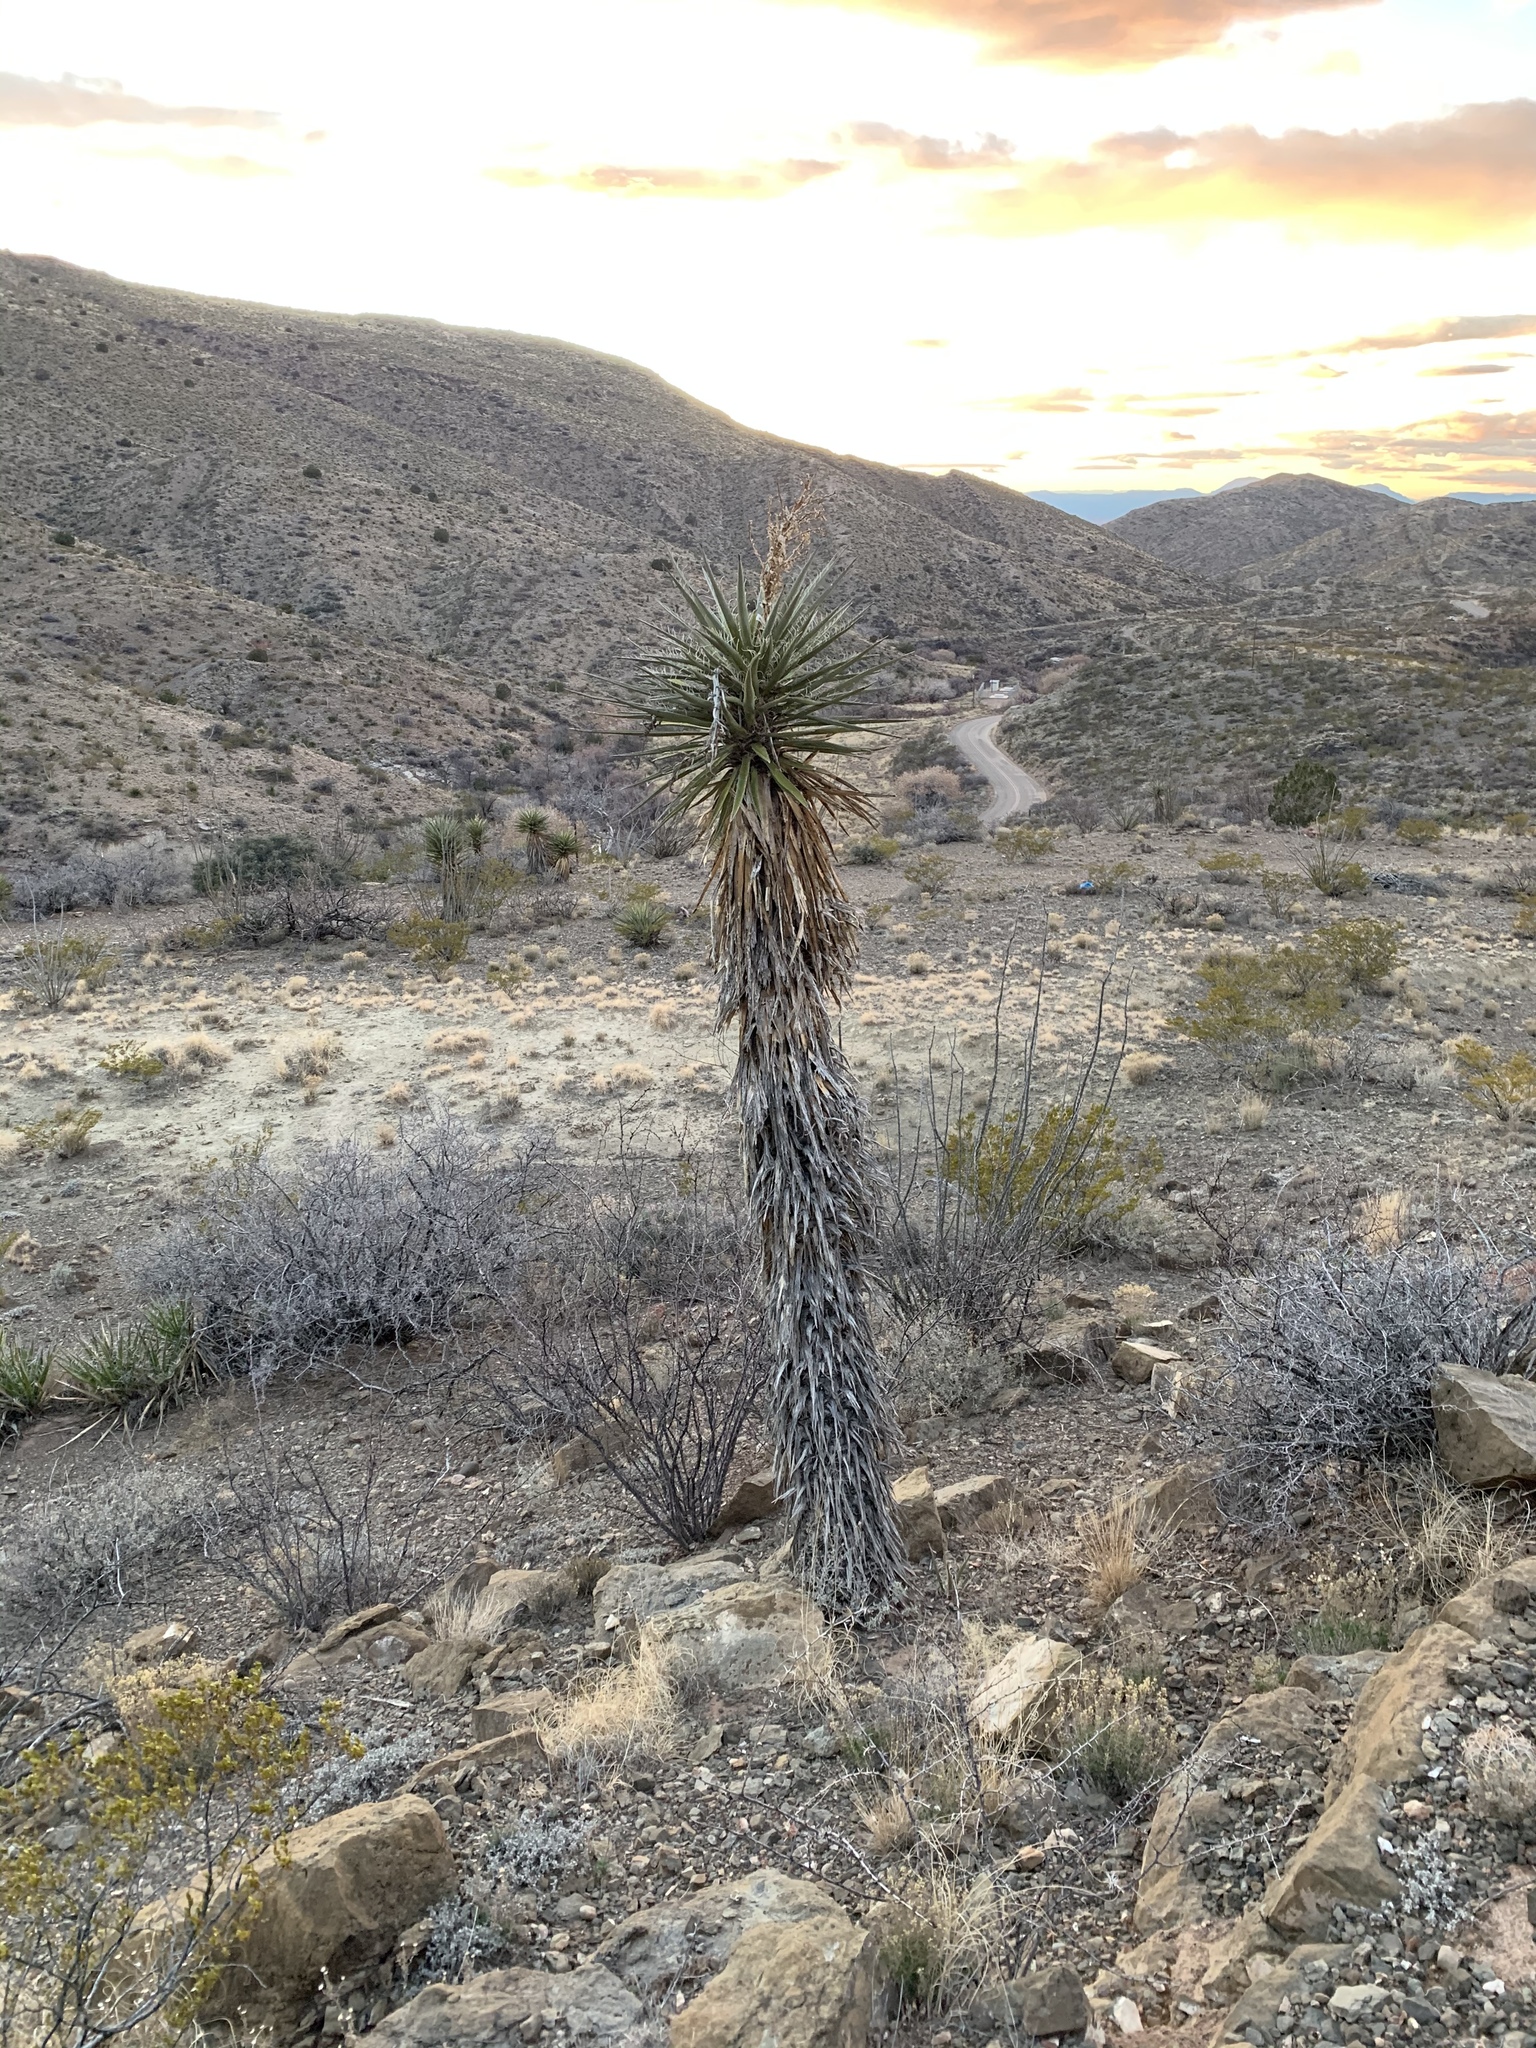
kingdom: Plantae
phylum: Tracheophyta
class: Liliopsida
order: Asparagales
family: Asparagaceae
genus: Yucca
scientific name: Yucca treculiana
